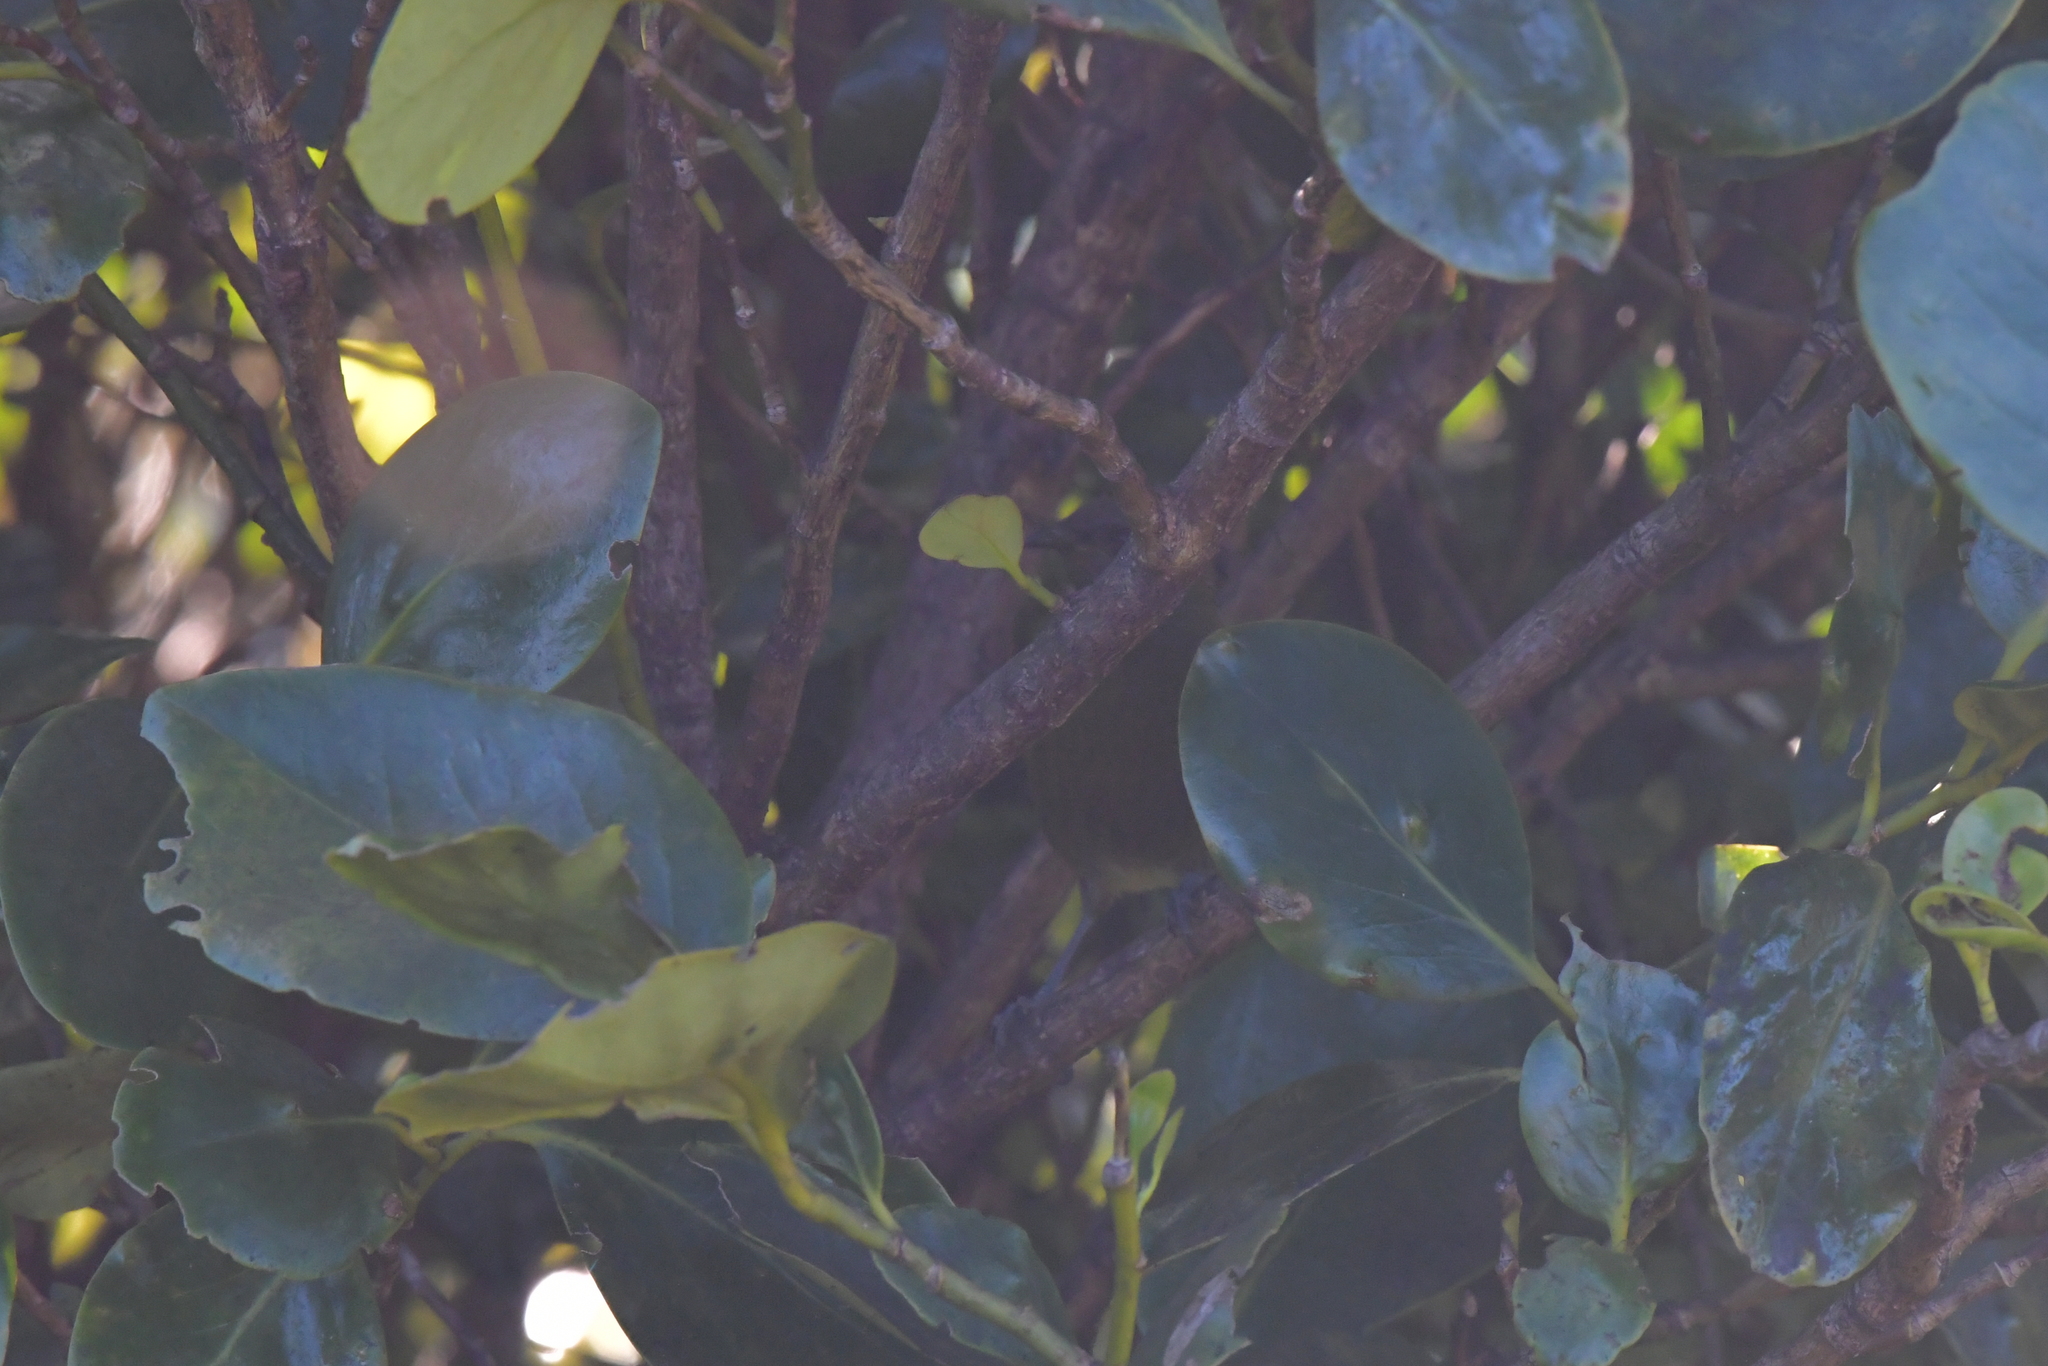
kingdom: Animalia
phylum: Chordata
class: Aves
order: Passeriformes
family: Meliphagidae
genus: Anthornis
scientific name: Anthornis melanura
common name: New zealand bellbird
